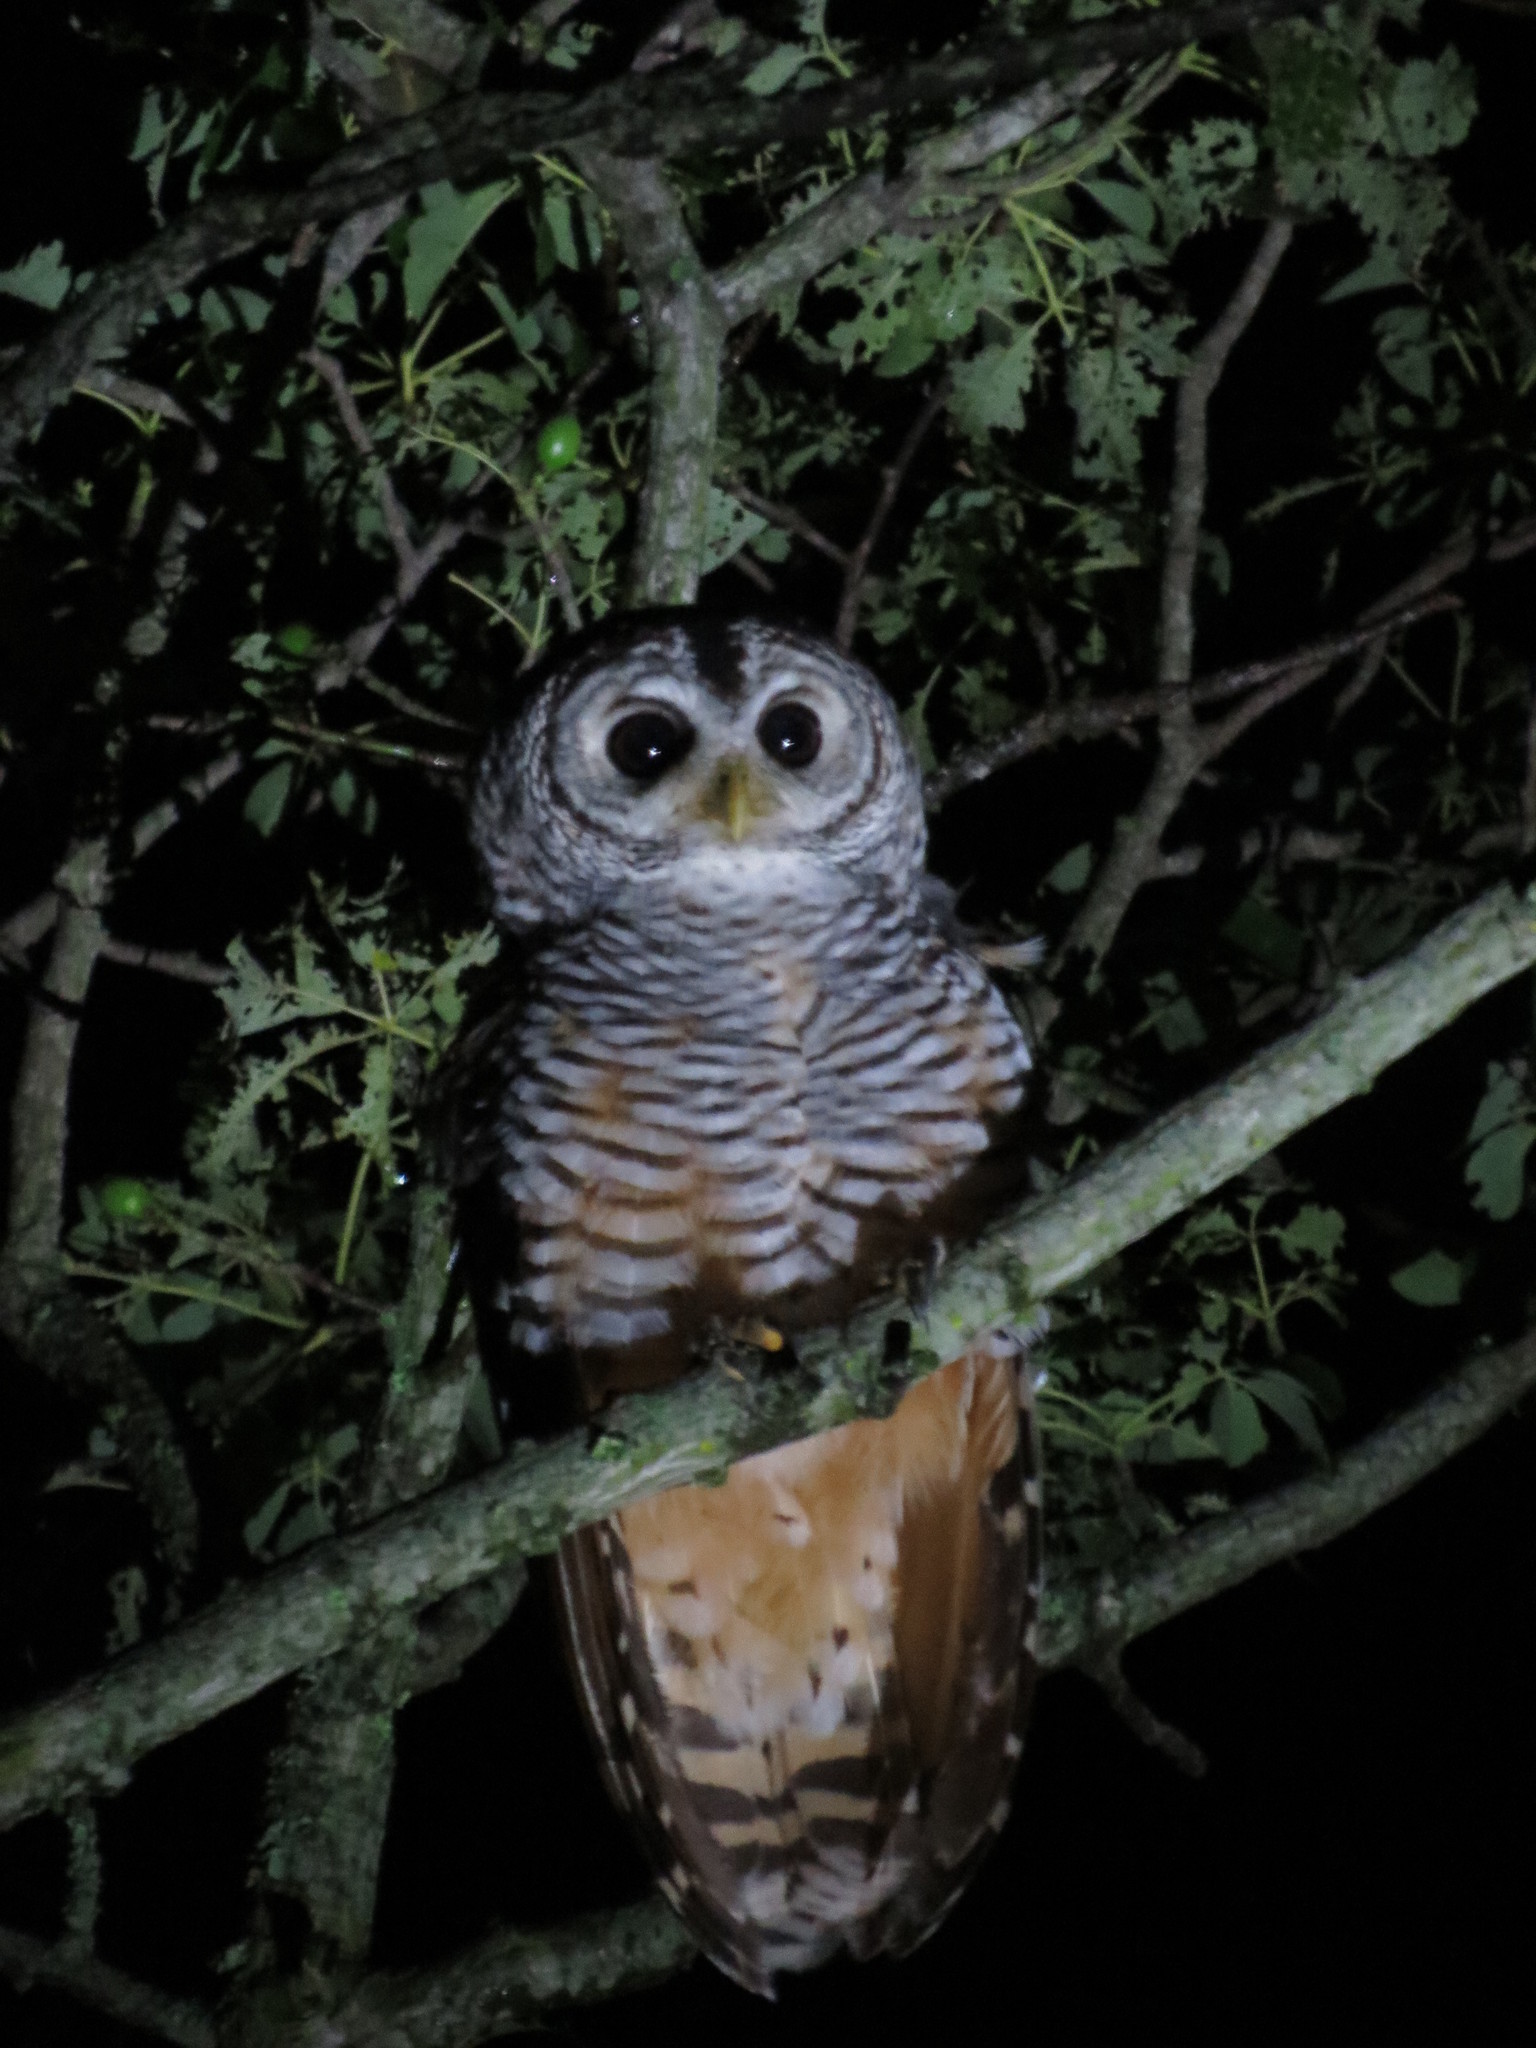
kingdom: Animalia
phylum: Chordata
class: Aves
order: Strigiformes
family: Strigidae
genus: Strix
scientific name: Strix chacoensis
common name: Chaco owl
